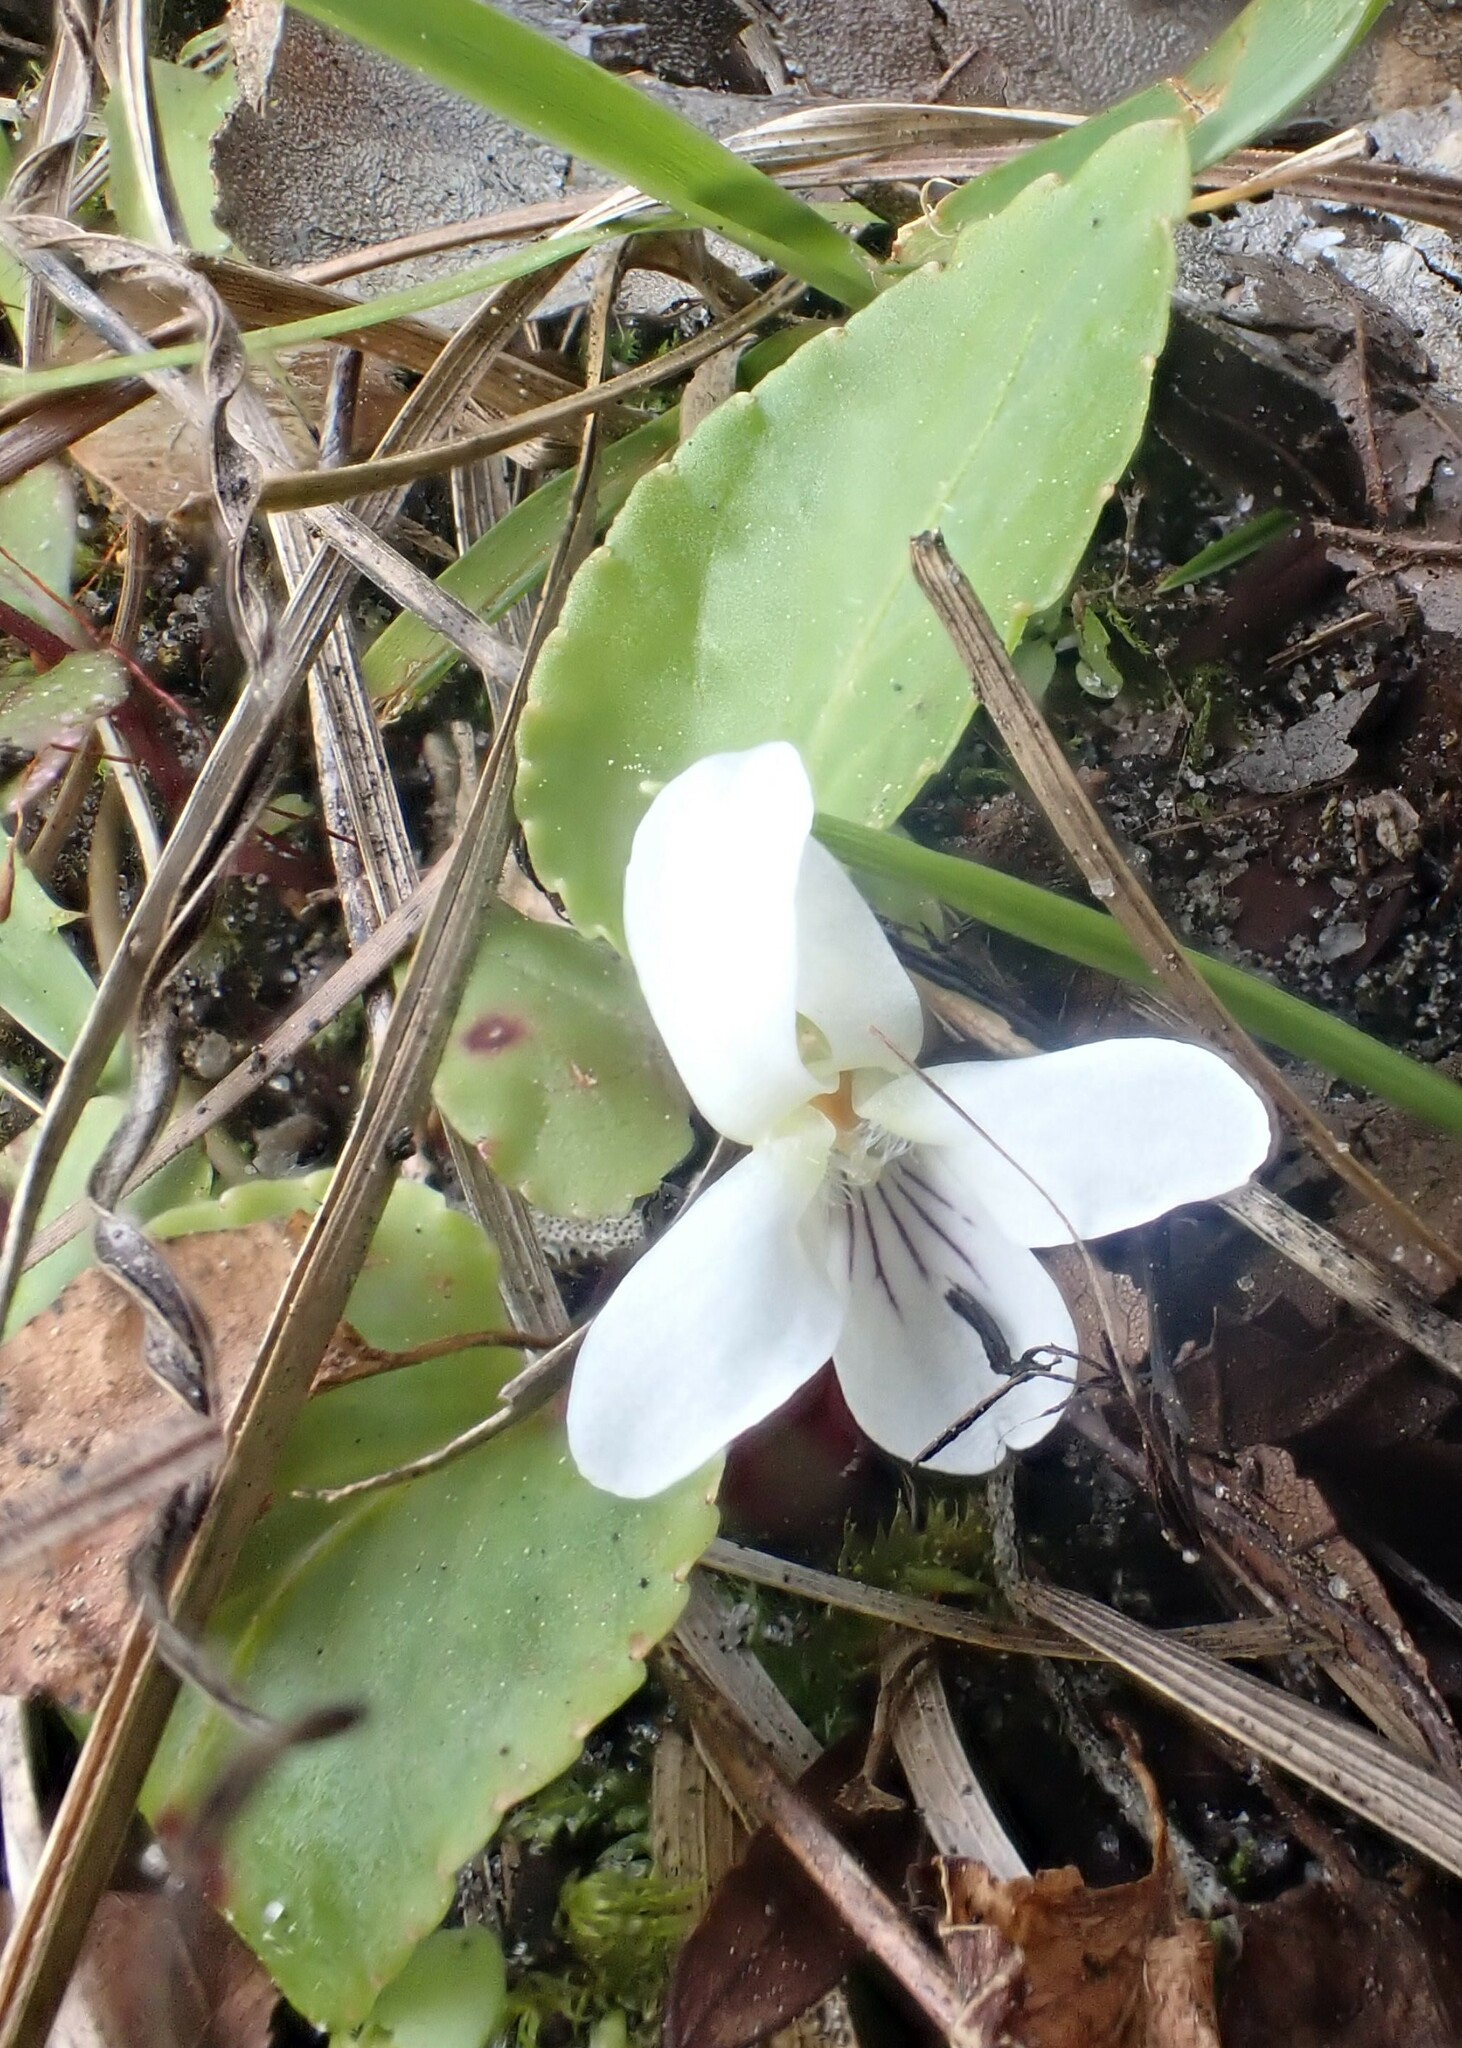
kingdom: Plantae
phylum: Tracheophyta
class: Magnoliopsida
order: Malpighiales
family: Violaceae
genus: Viola
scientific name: Viola primulifolia
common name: Primrose-leaf violet
